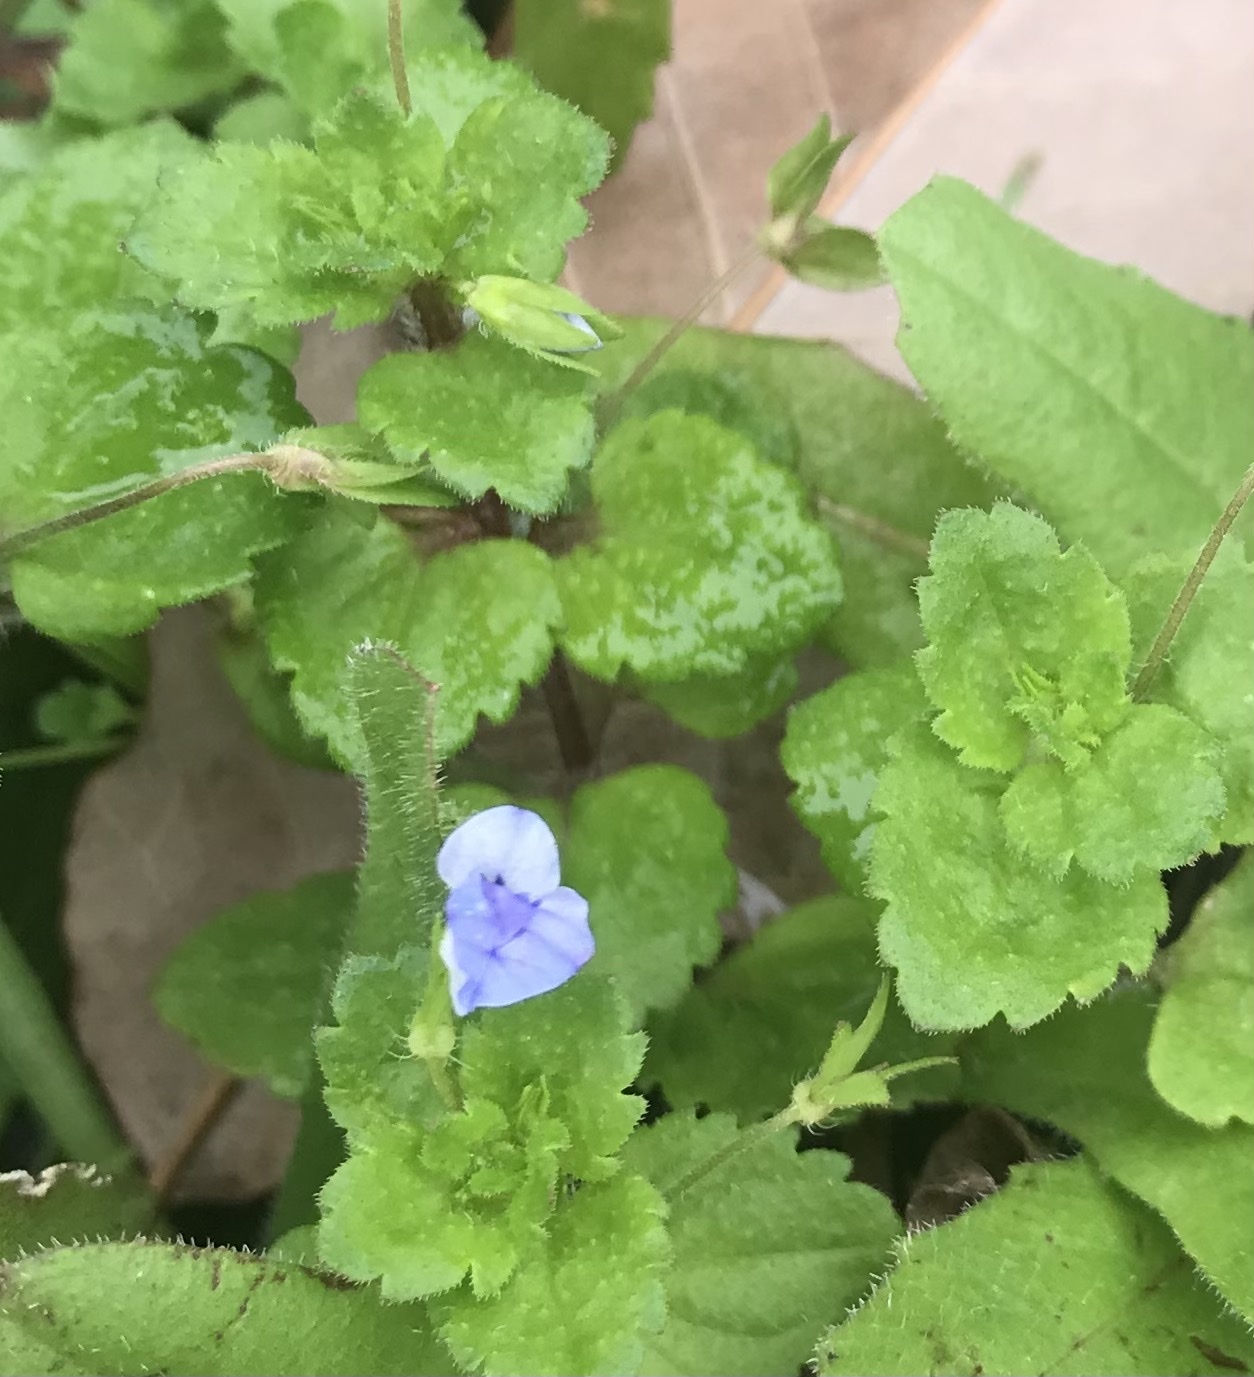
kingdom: Plantae
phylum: Tracheophyta
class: Magnoliopsida
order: Lamiales
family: Plantaginaceae
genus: Veronica
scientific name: Veronica persica
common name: Common field-speedwell
